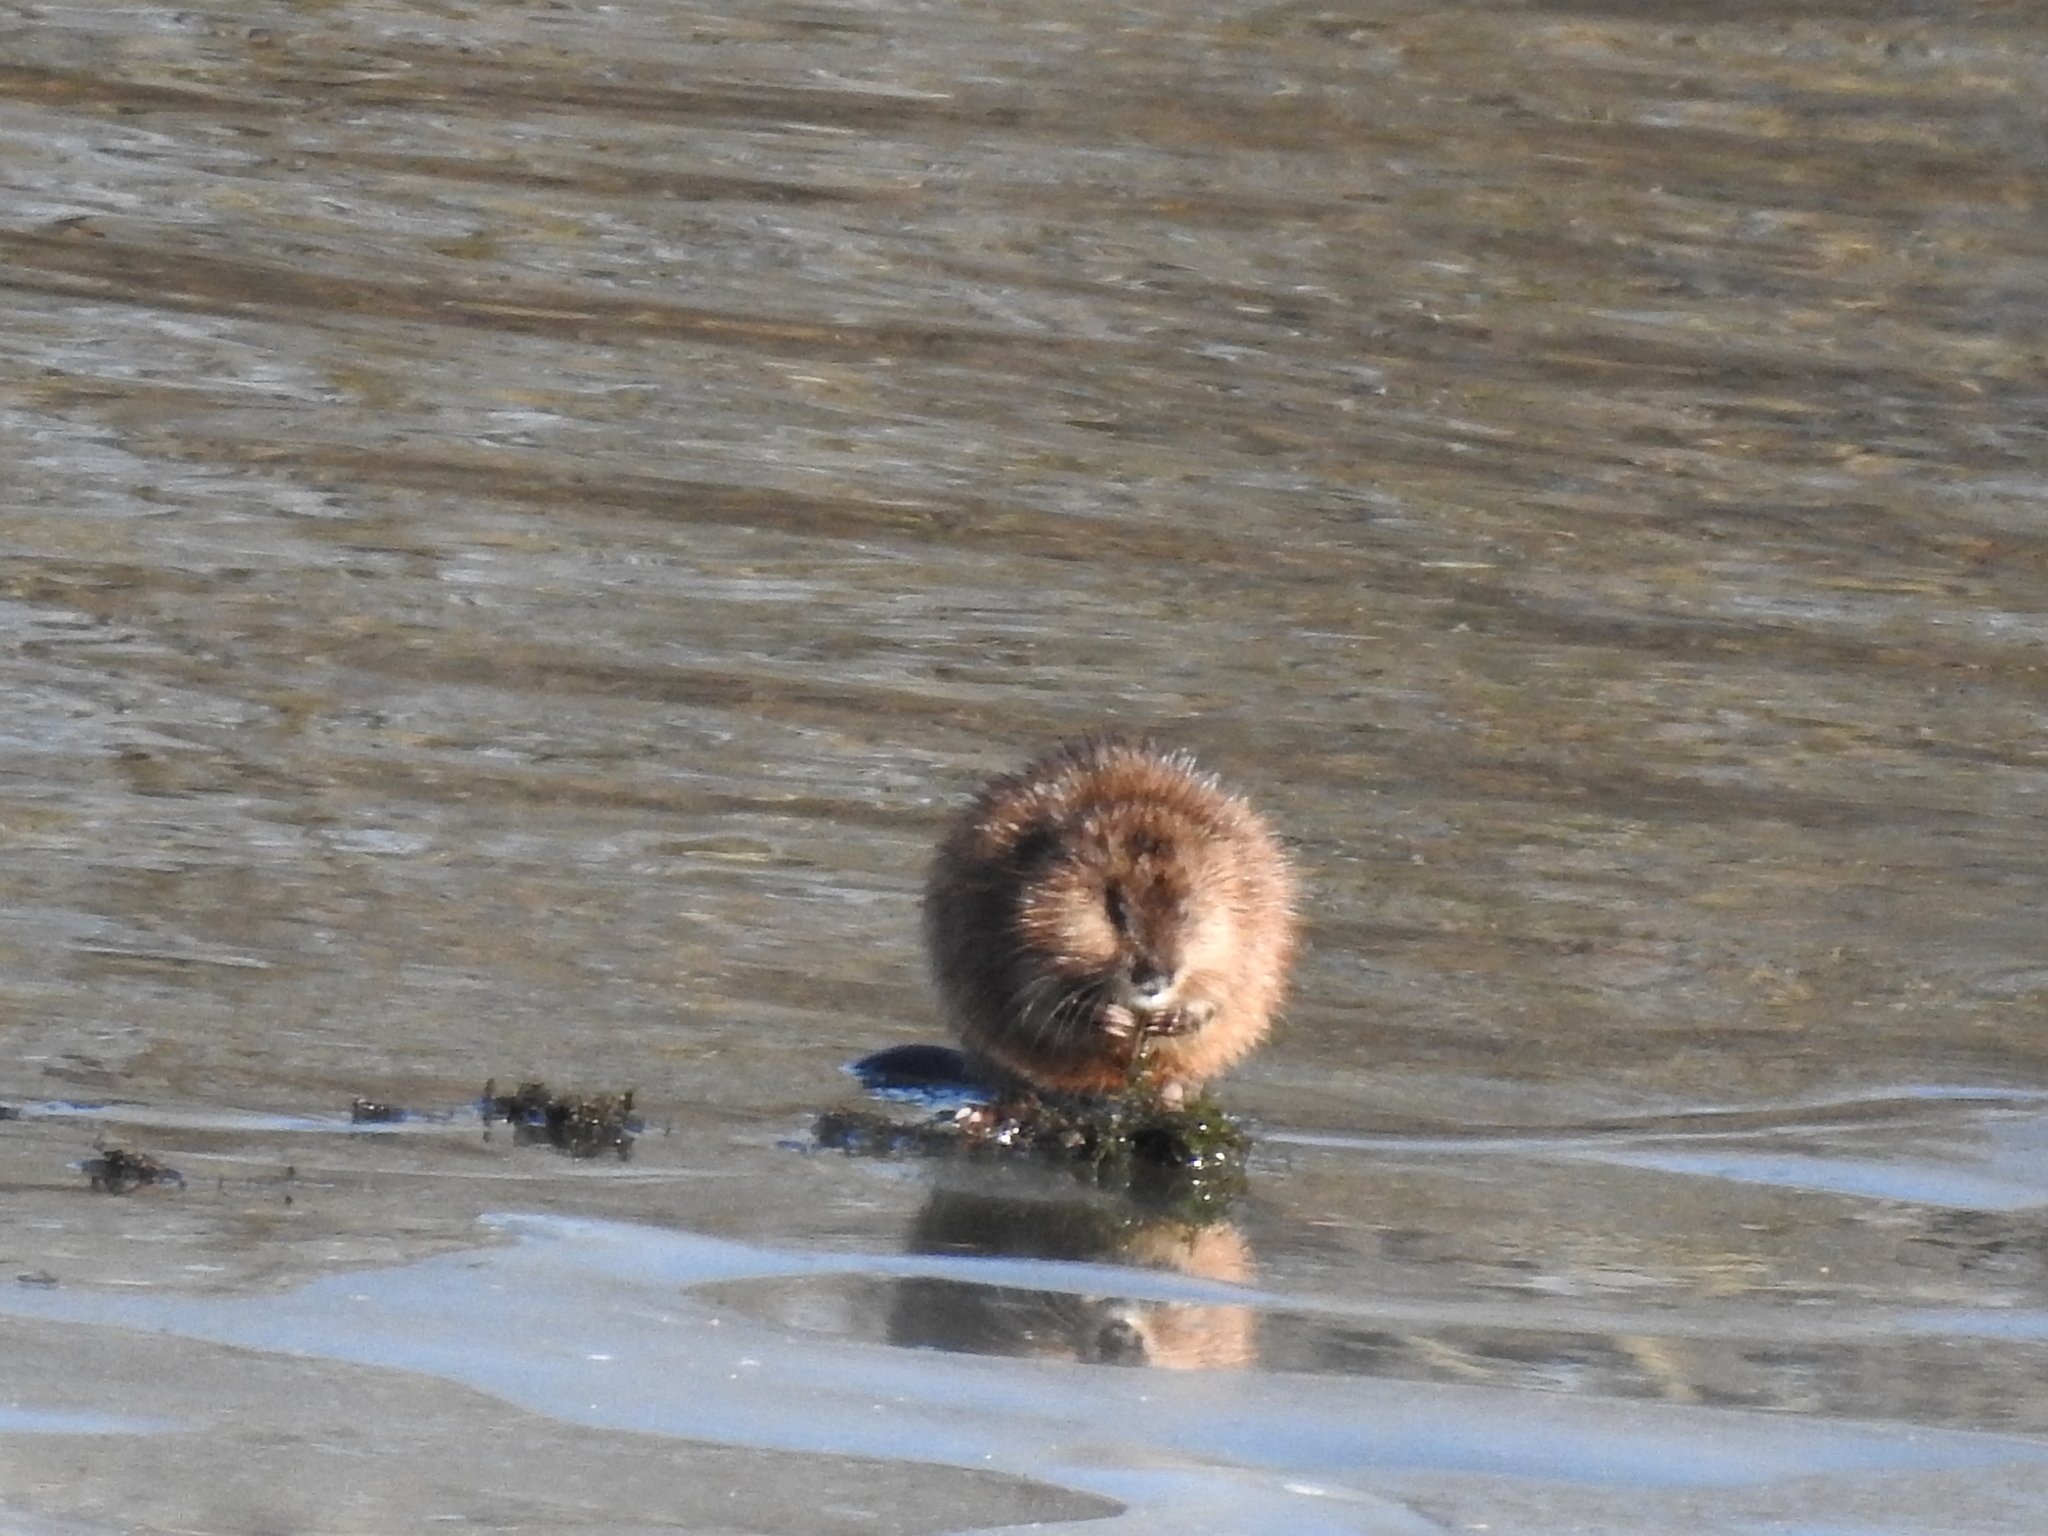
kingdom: Animalia
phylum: Chordata
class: Mammalia
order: Rodentia
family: Cricetidae
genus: Ondatra
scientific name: Ondatra zibethicus
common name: Muskrat
